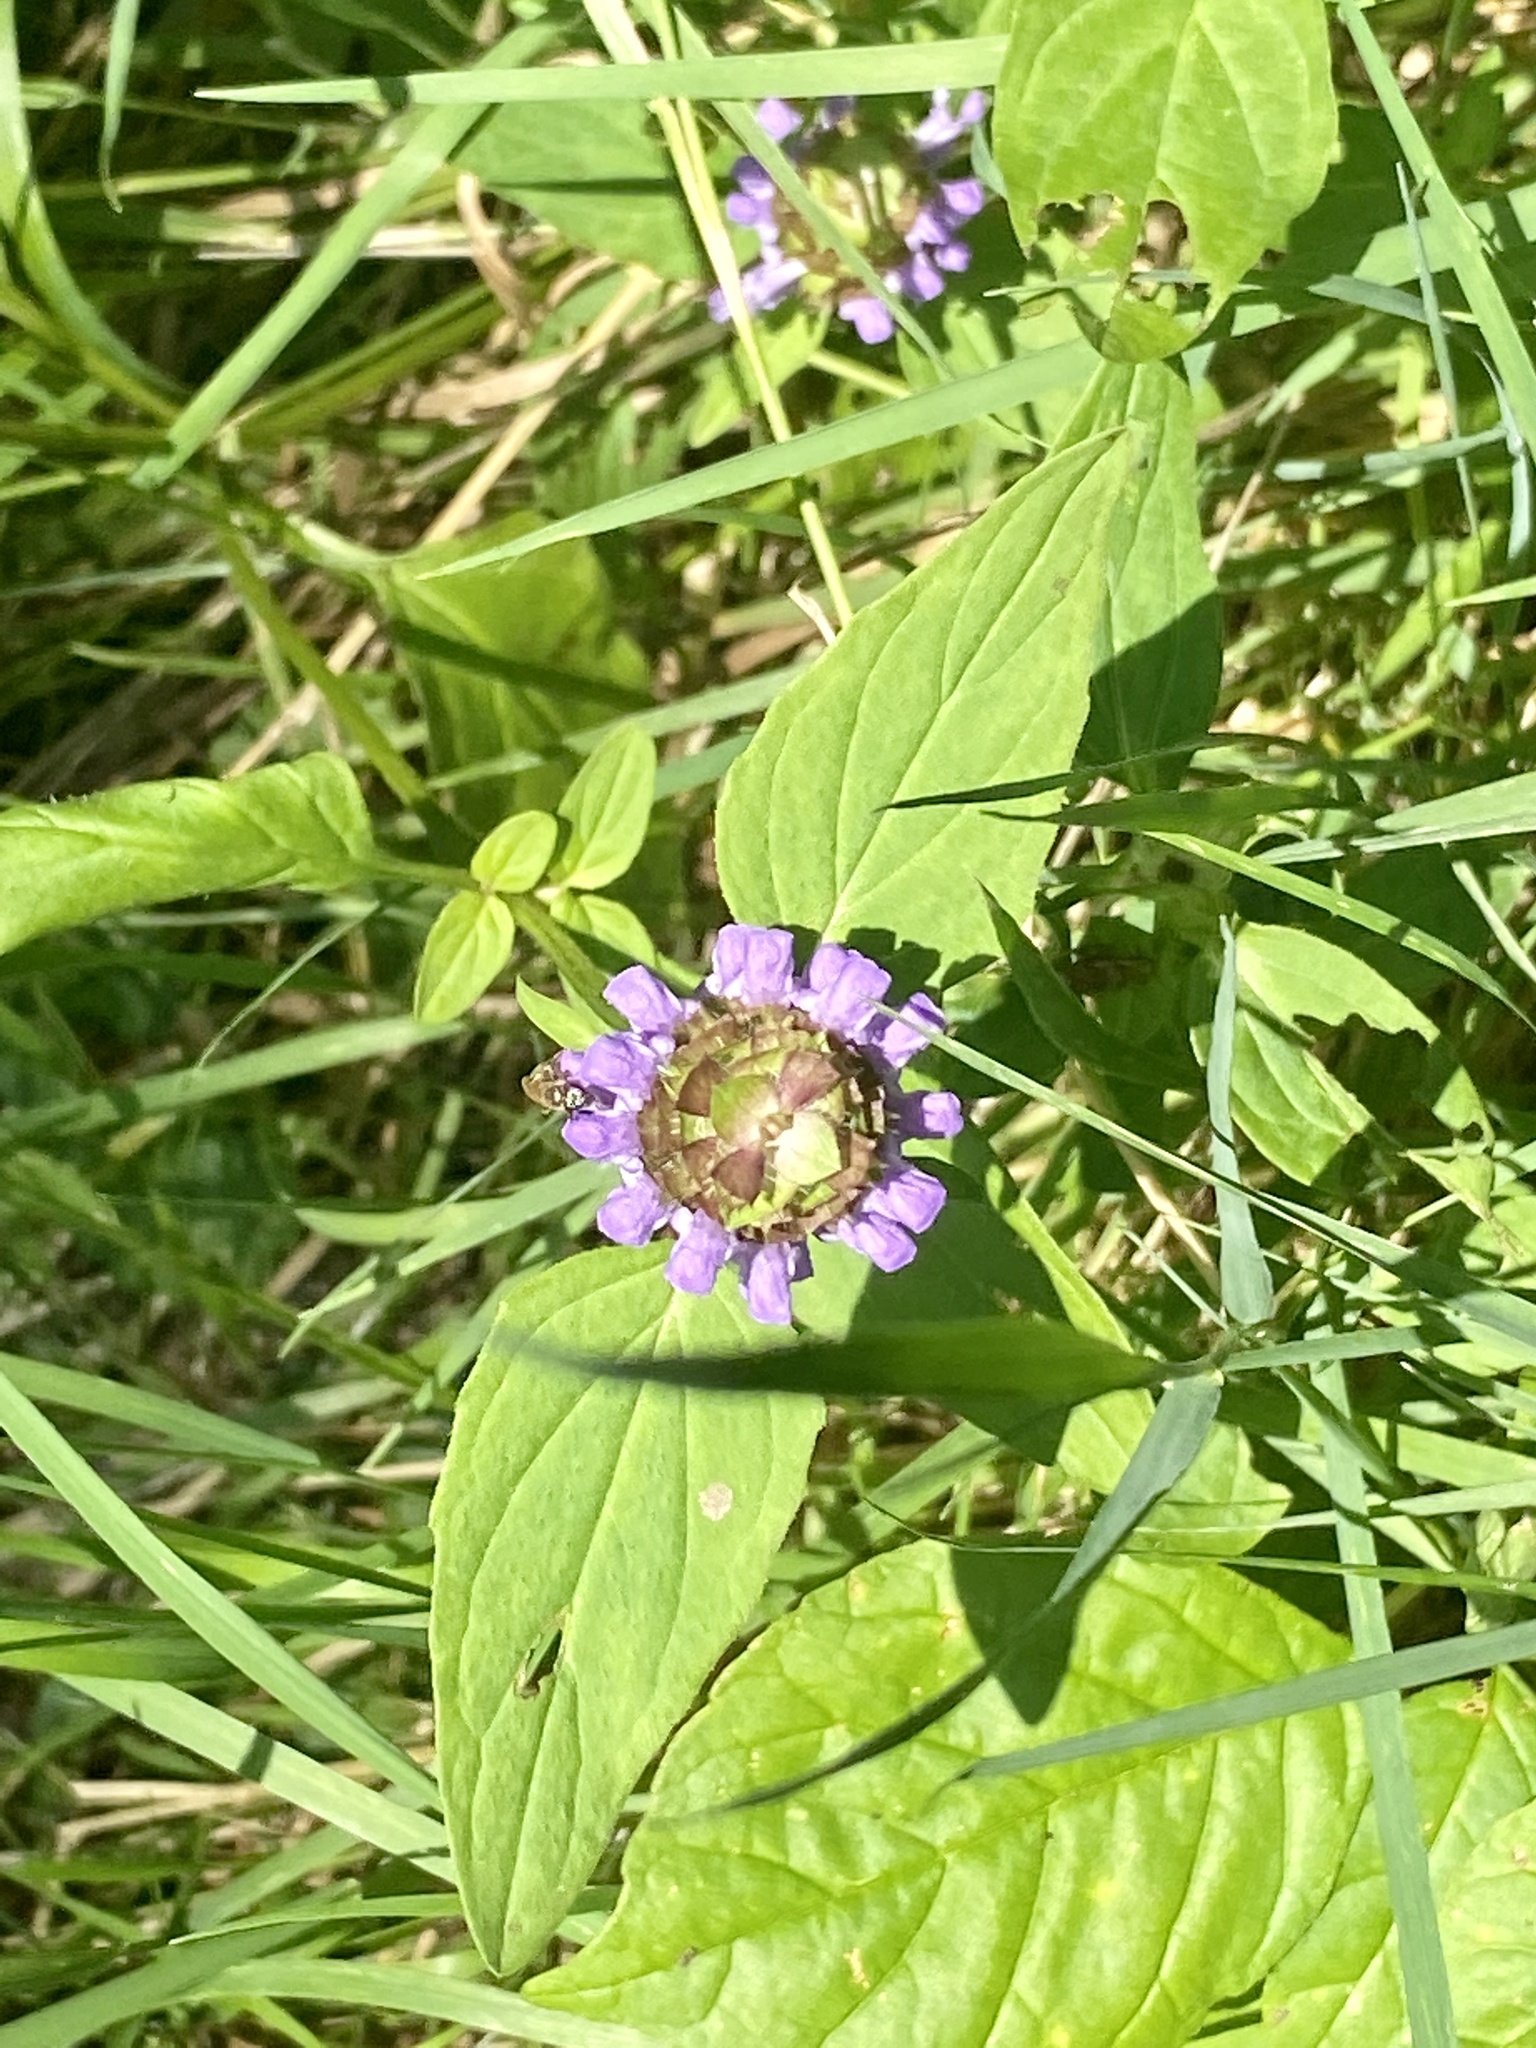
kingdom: Plantae
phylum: Tracheophyta
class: Magnoliopsida
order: Lamiales
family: Lamiaceae
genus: Prunella
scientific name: Prunella vulgaris
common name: Heal-all
